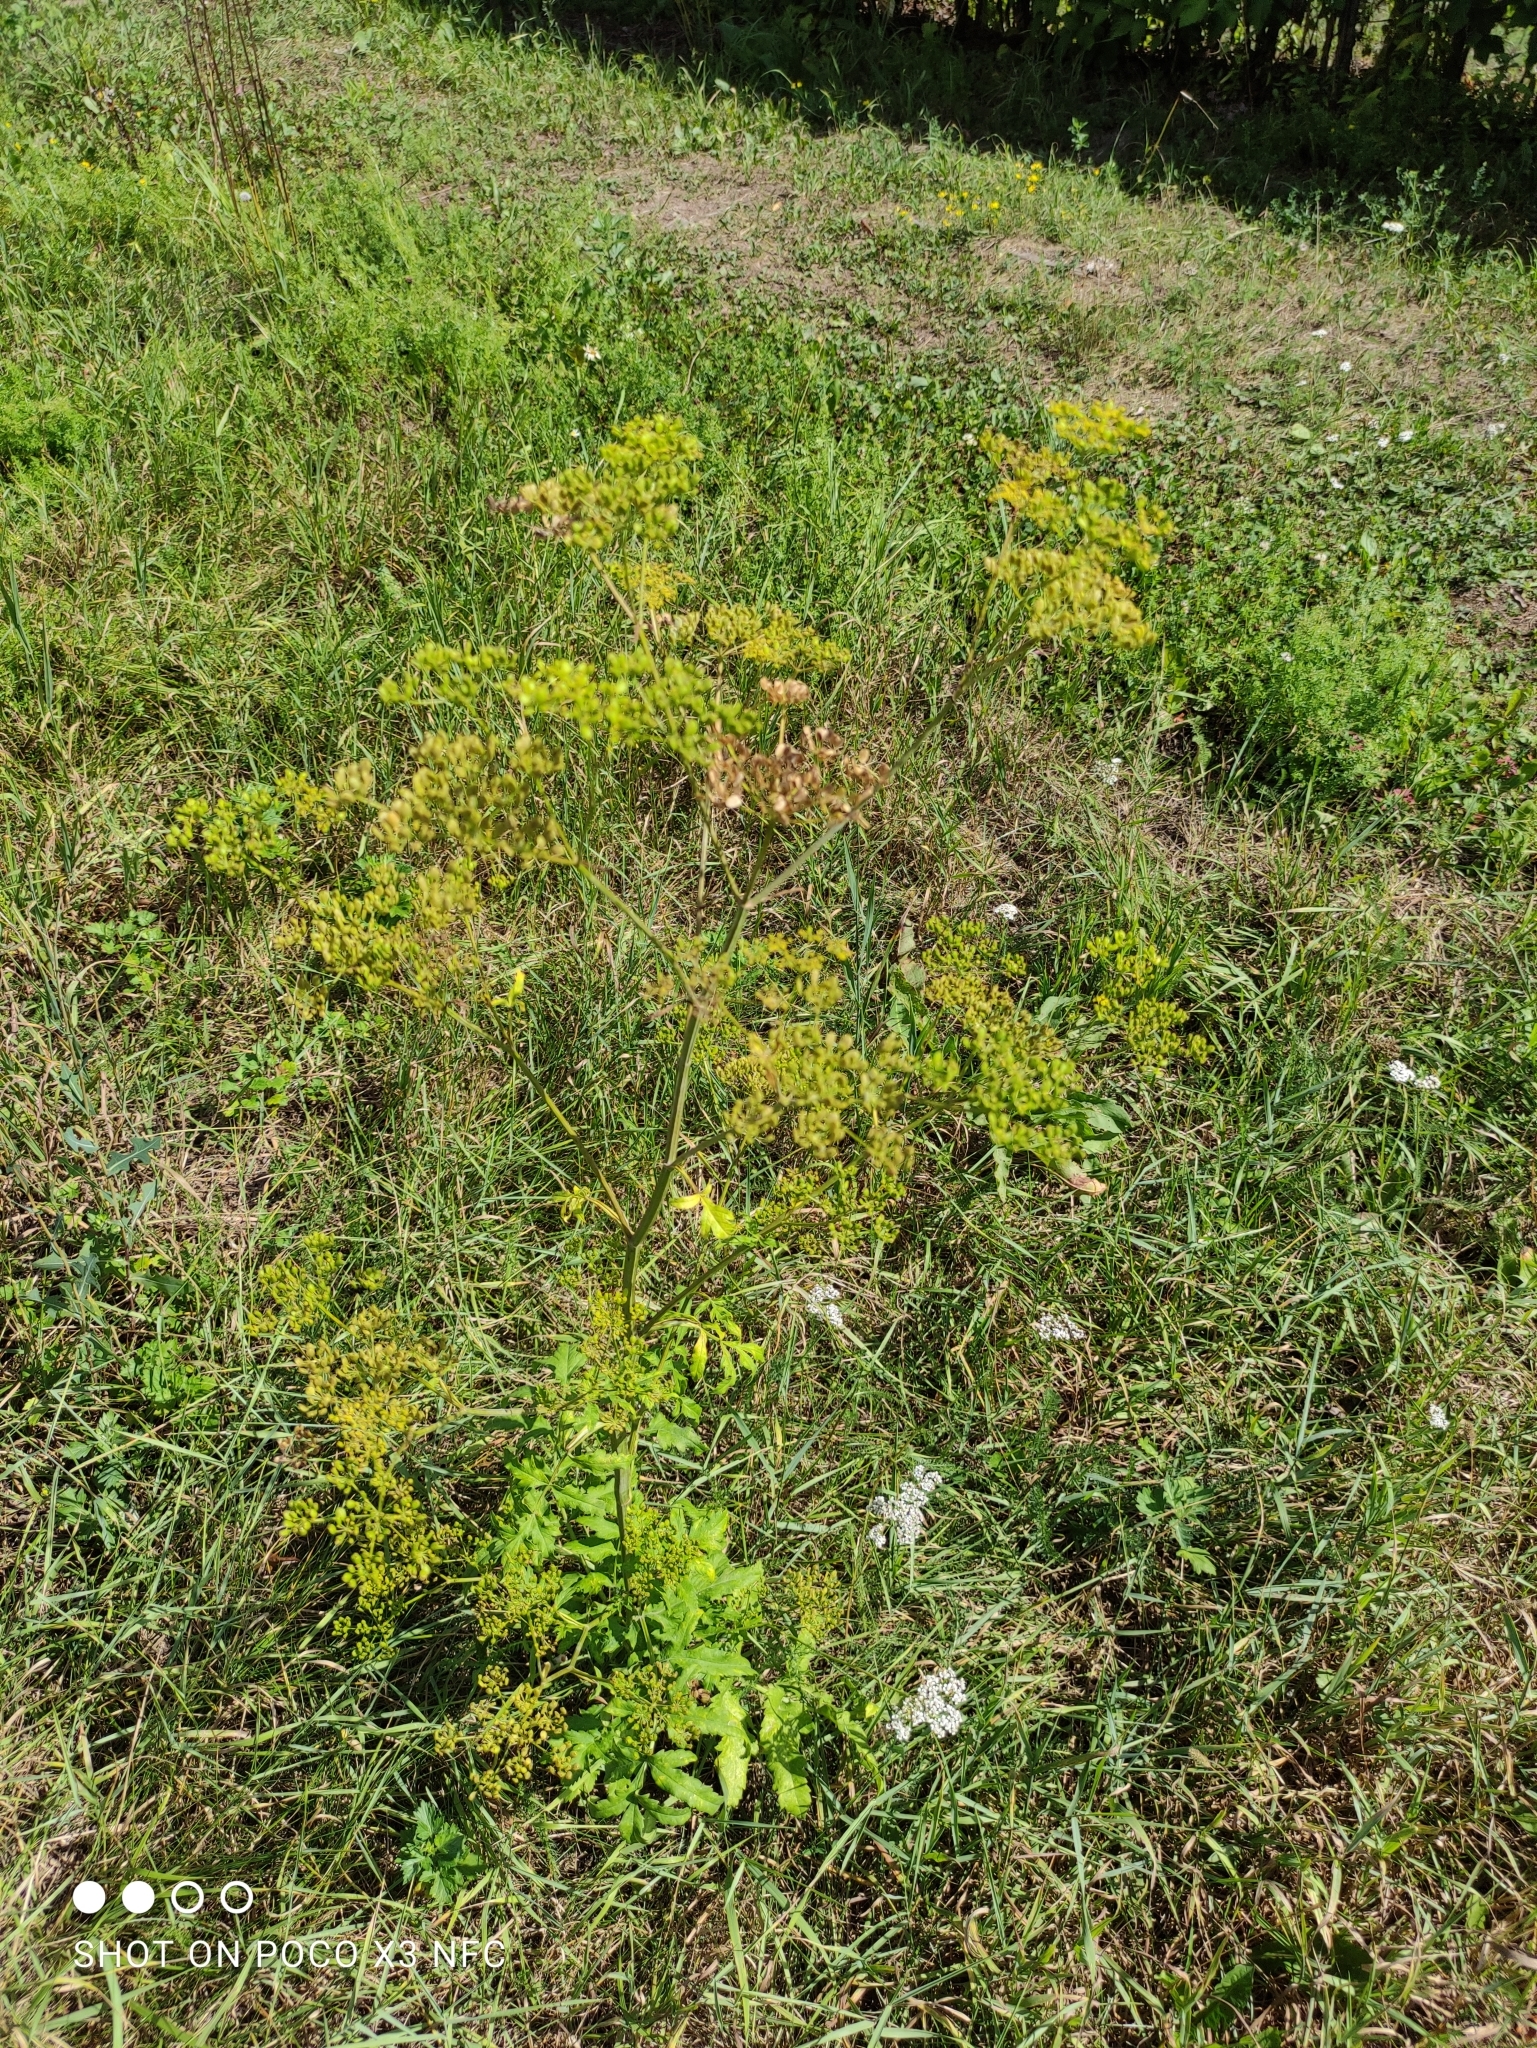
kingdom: Plantae
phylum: Tracheophyta
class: Magnoliopsida
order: Apiales
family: Apiaceae
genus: Pastinaca
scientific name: Pastinaca sativa
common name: Wild parsnip
